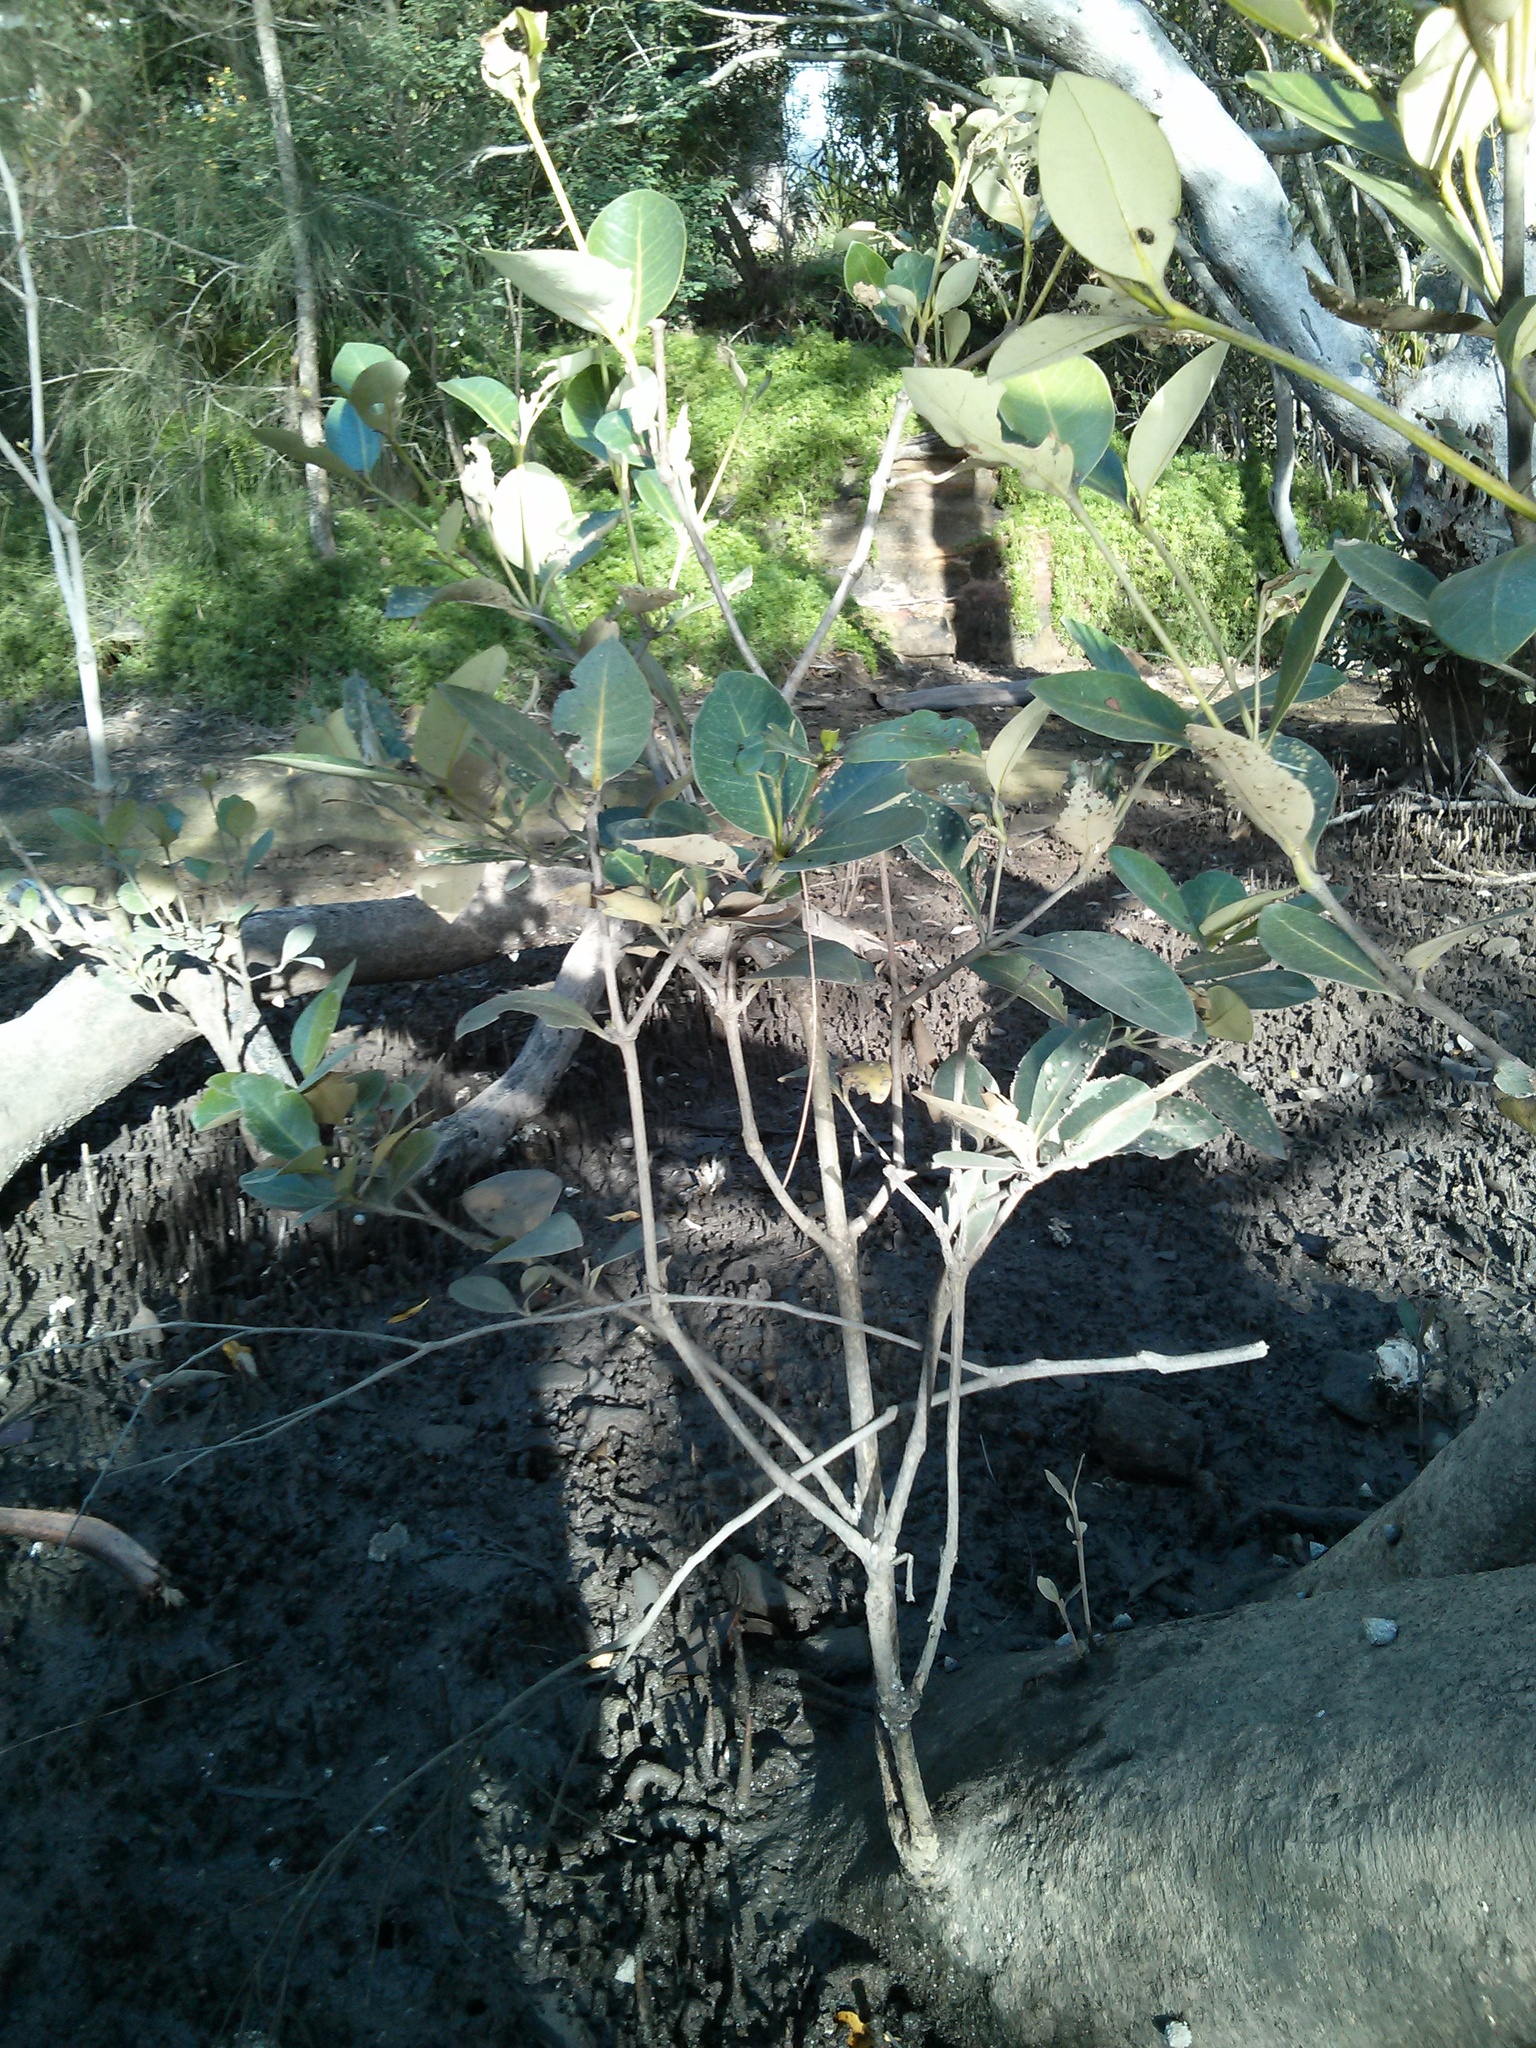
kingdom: Plantae
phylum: Tracheophyta
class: Magnoliopsida
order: Lamiales
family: Acanthaceae
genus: Avicennia
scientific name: Avicennia marina
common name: Gray mangrove
